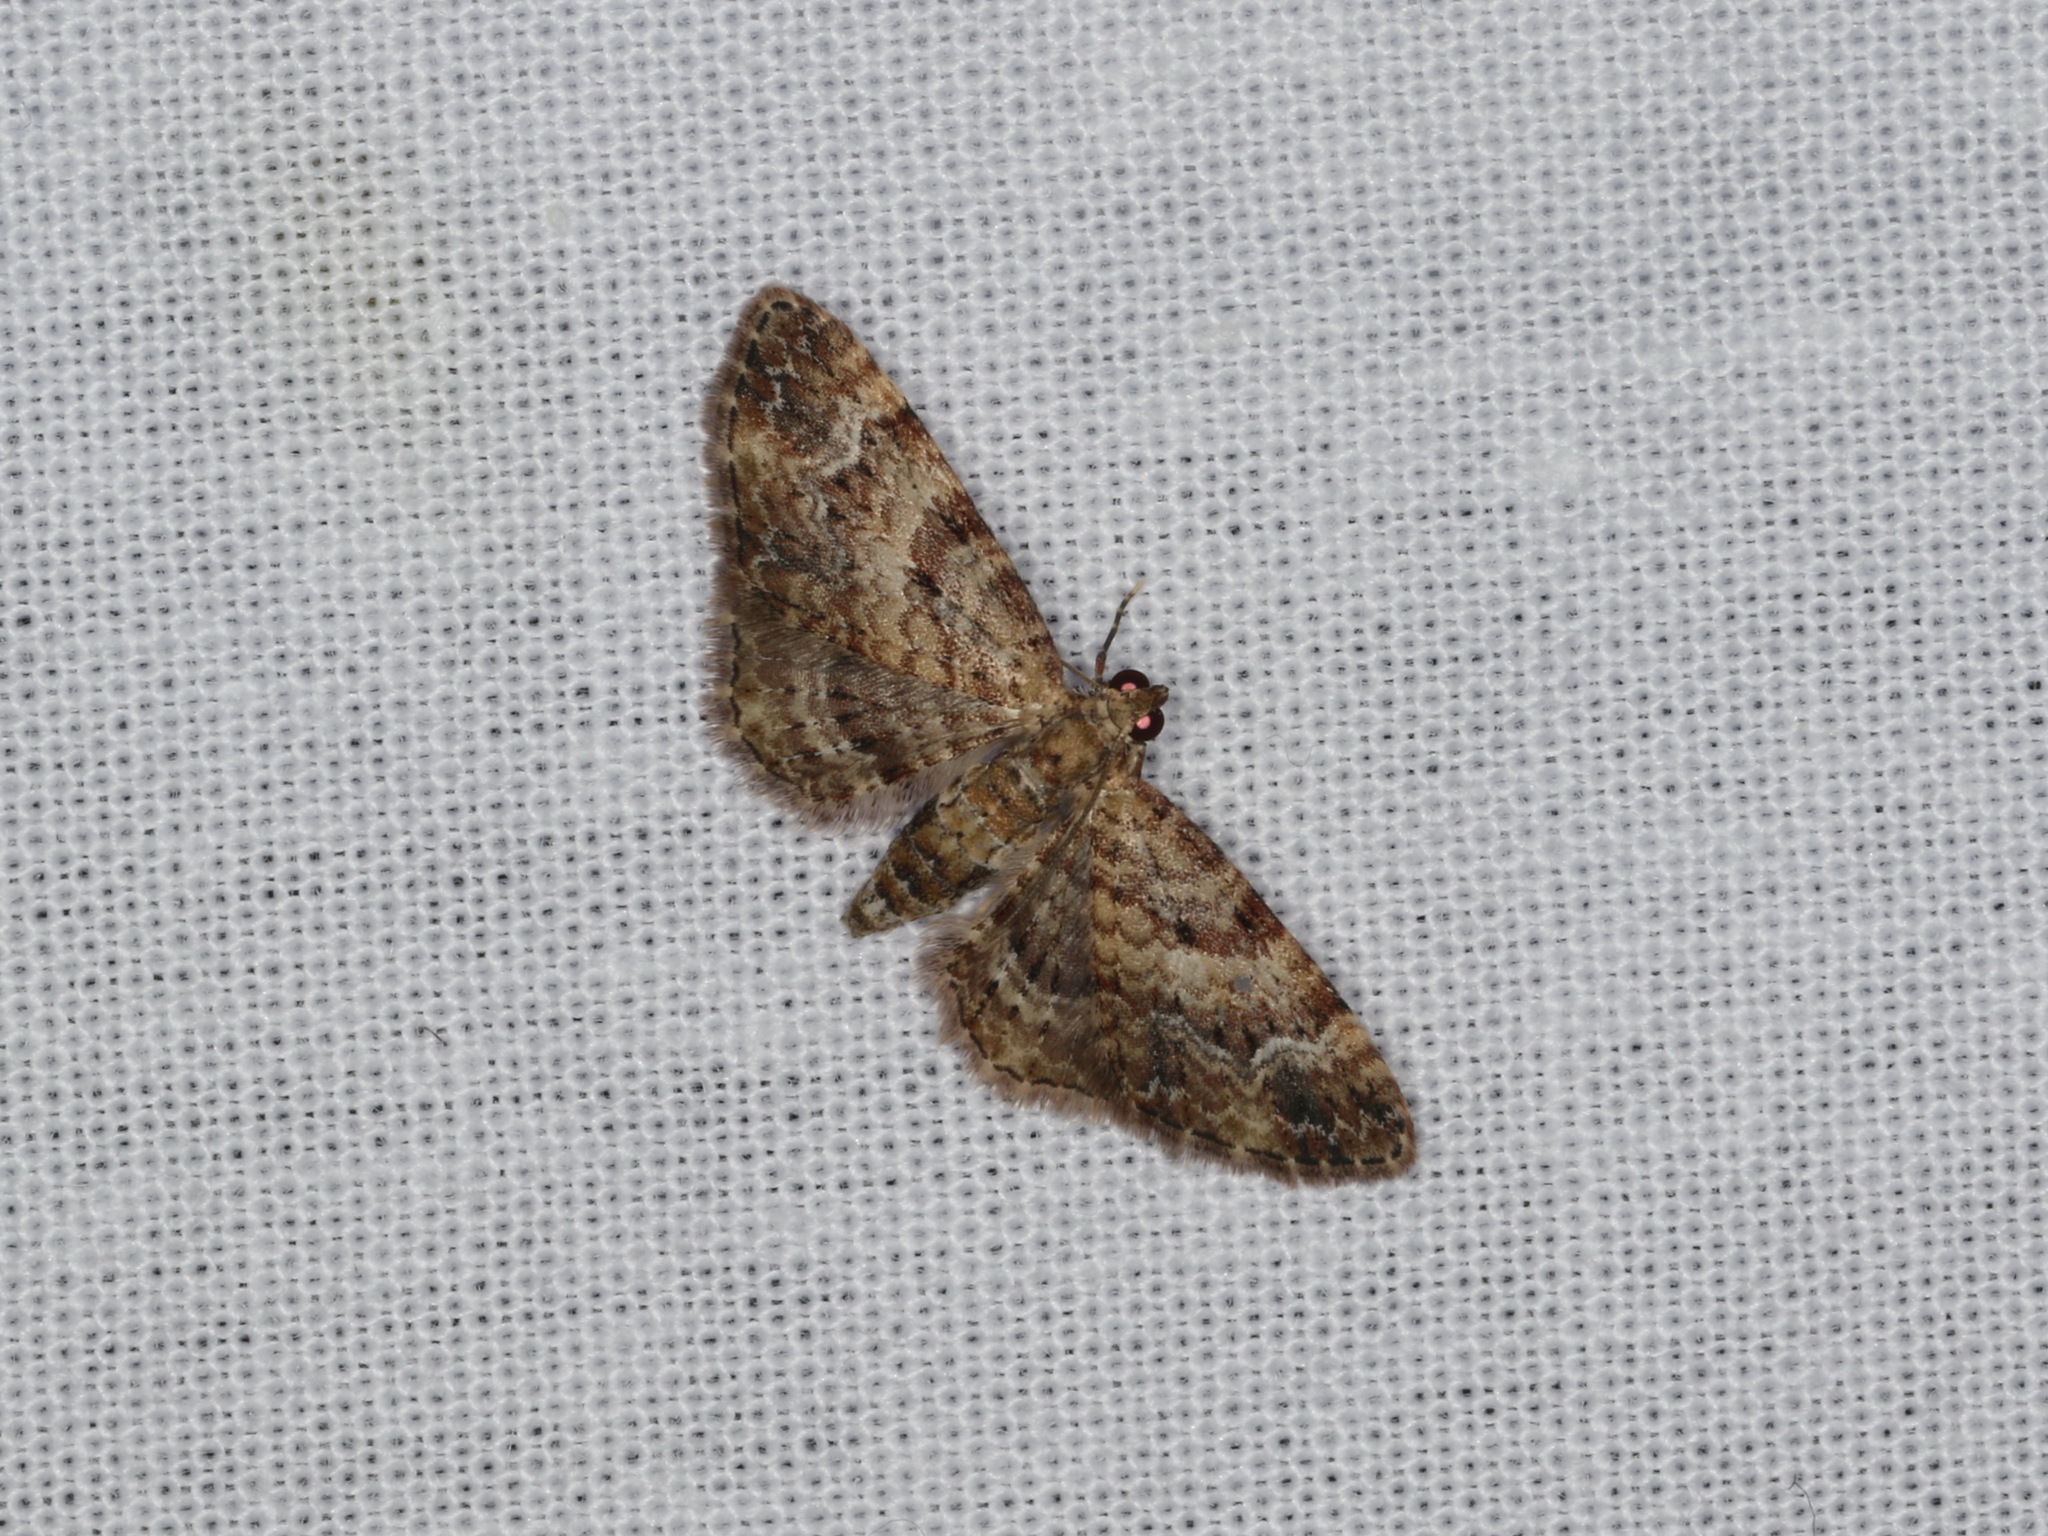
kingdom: Animalia
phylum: Arthropoda
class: Insecta
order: Lepidoptera
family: Geometridae
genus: Chloroclystis
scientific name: Chloroclystis approximata
